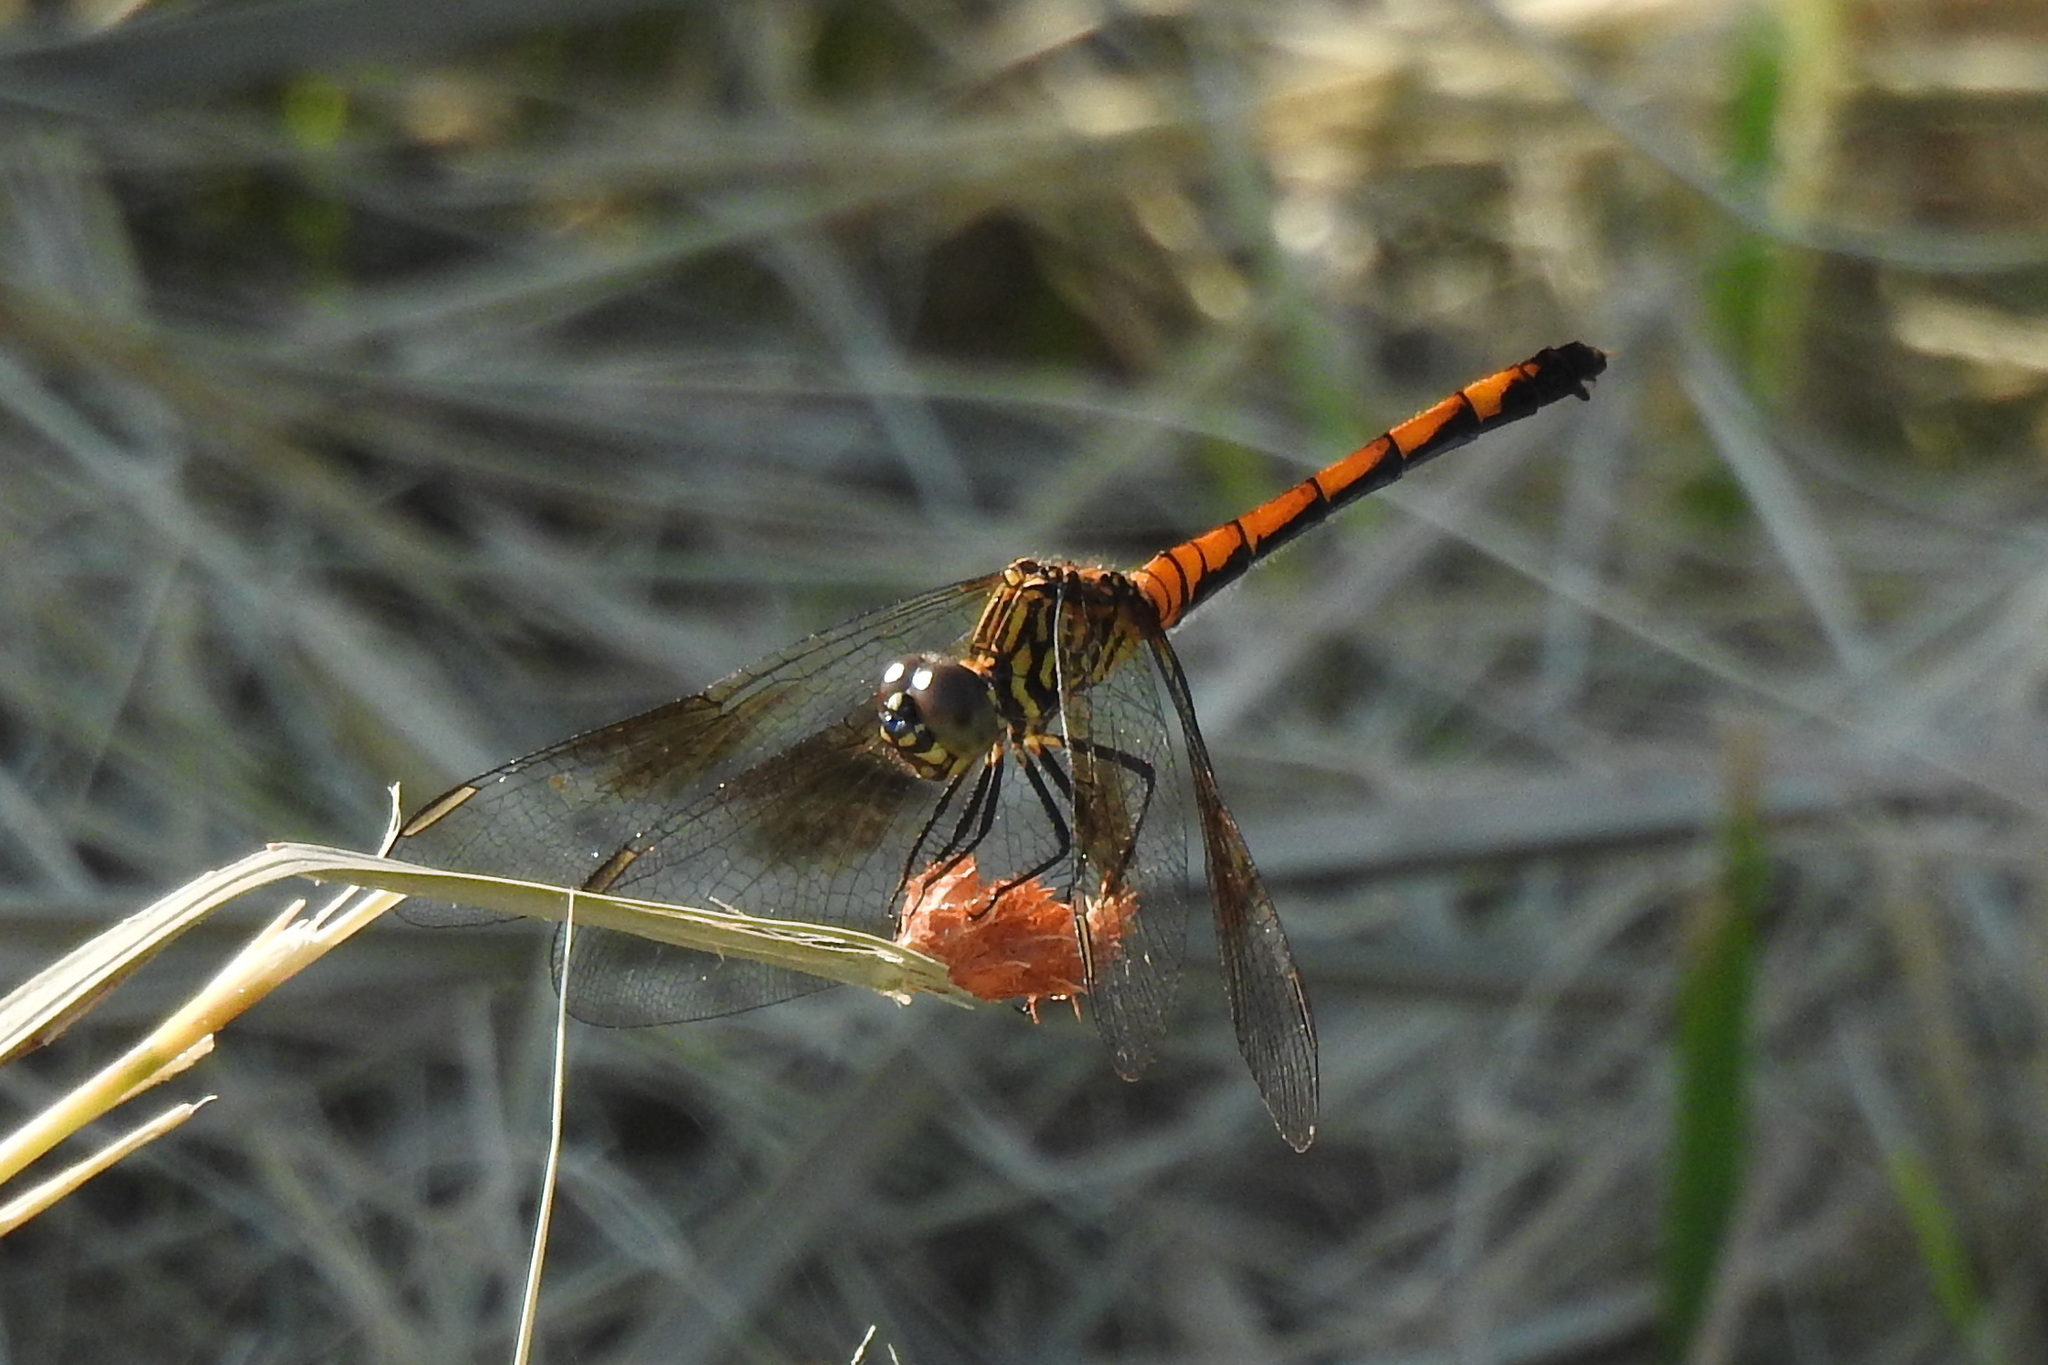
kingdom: Animalia
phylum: Arthropoda
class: Insecta
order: Odonata
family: Libellulidae
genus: Erythrodiplax
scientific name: Erythrodiplax berenice
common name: Seaside dragonlet
